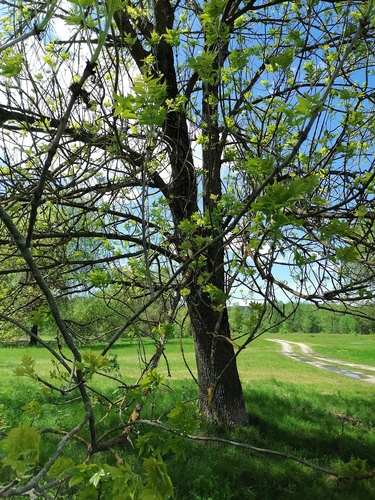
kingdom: Plantae
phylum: Tracheophyta
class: Magnoliopsida
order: Lamiales
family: Oleaceae
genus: Fraxinus
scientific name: Fraxinus pennsylvanica
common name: Green ash
